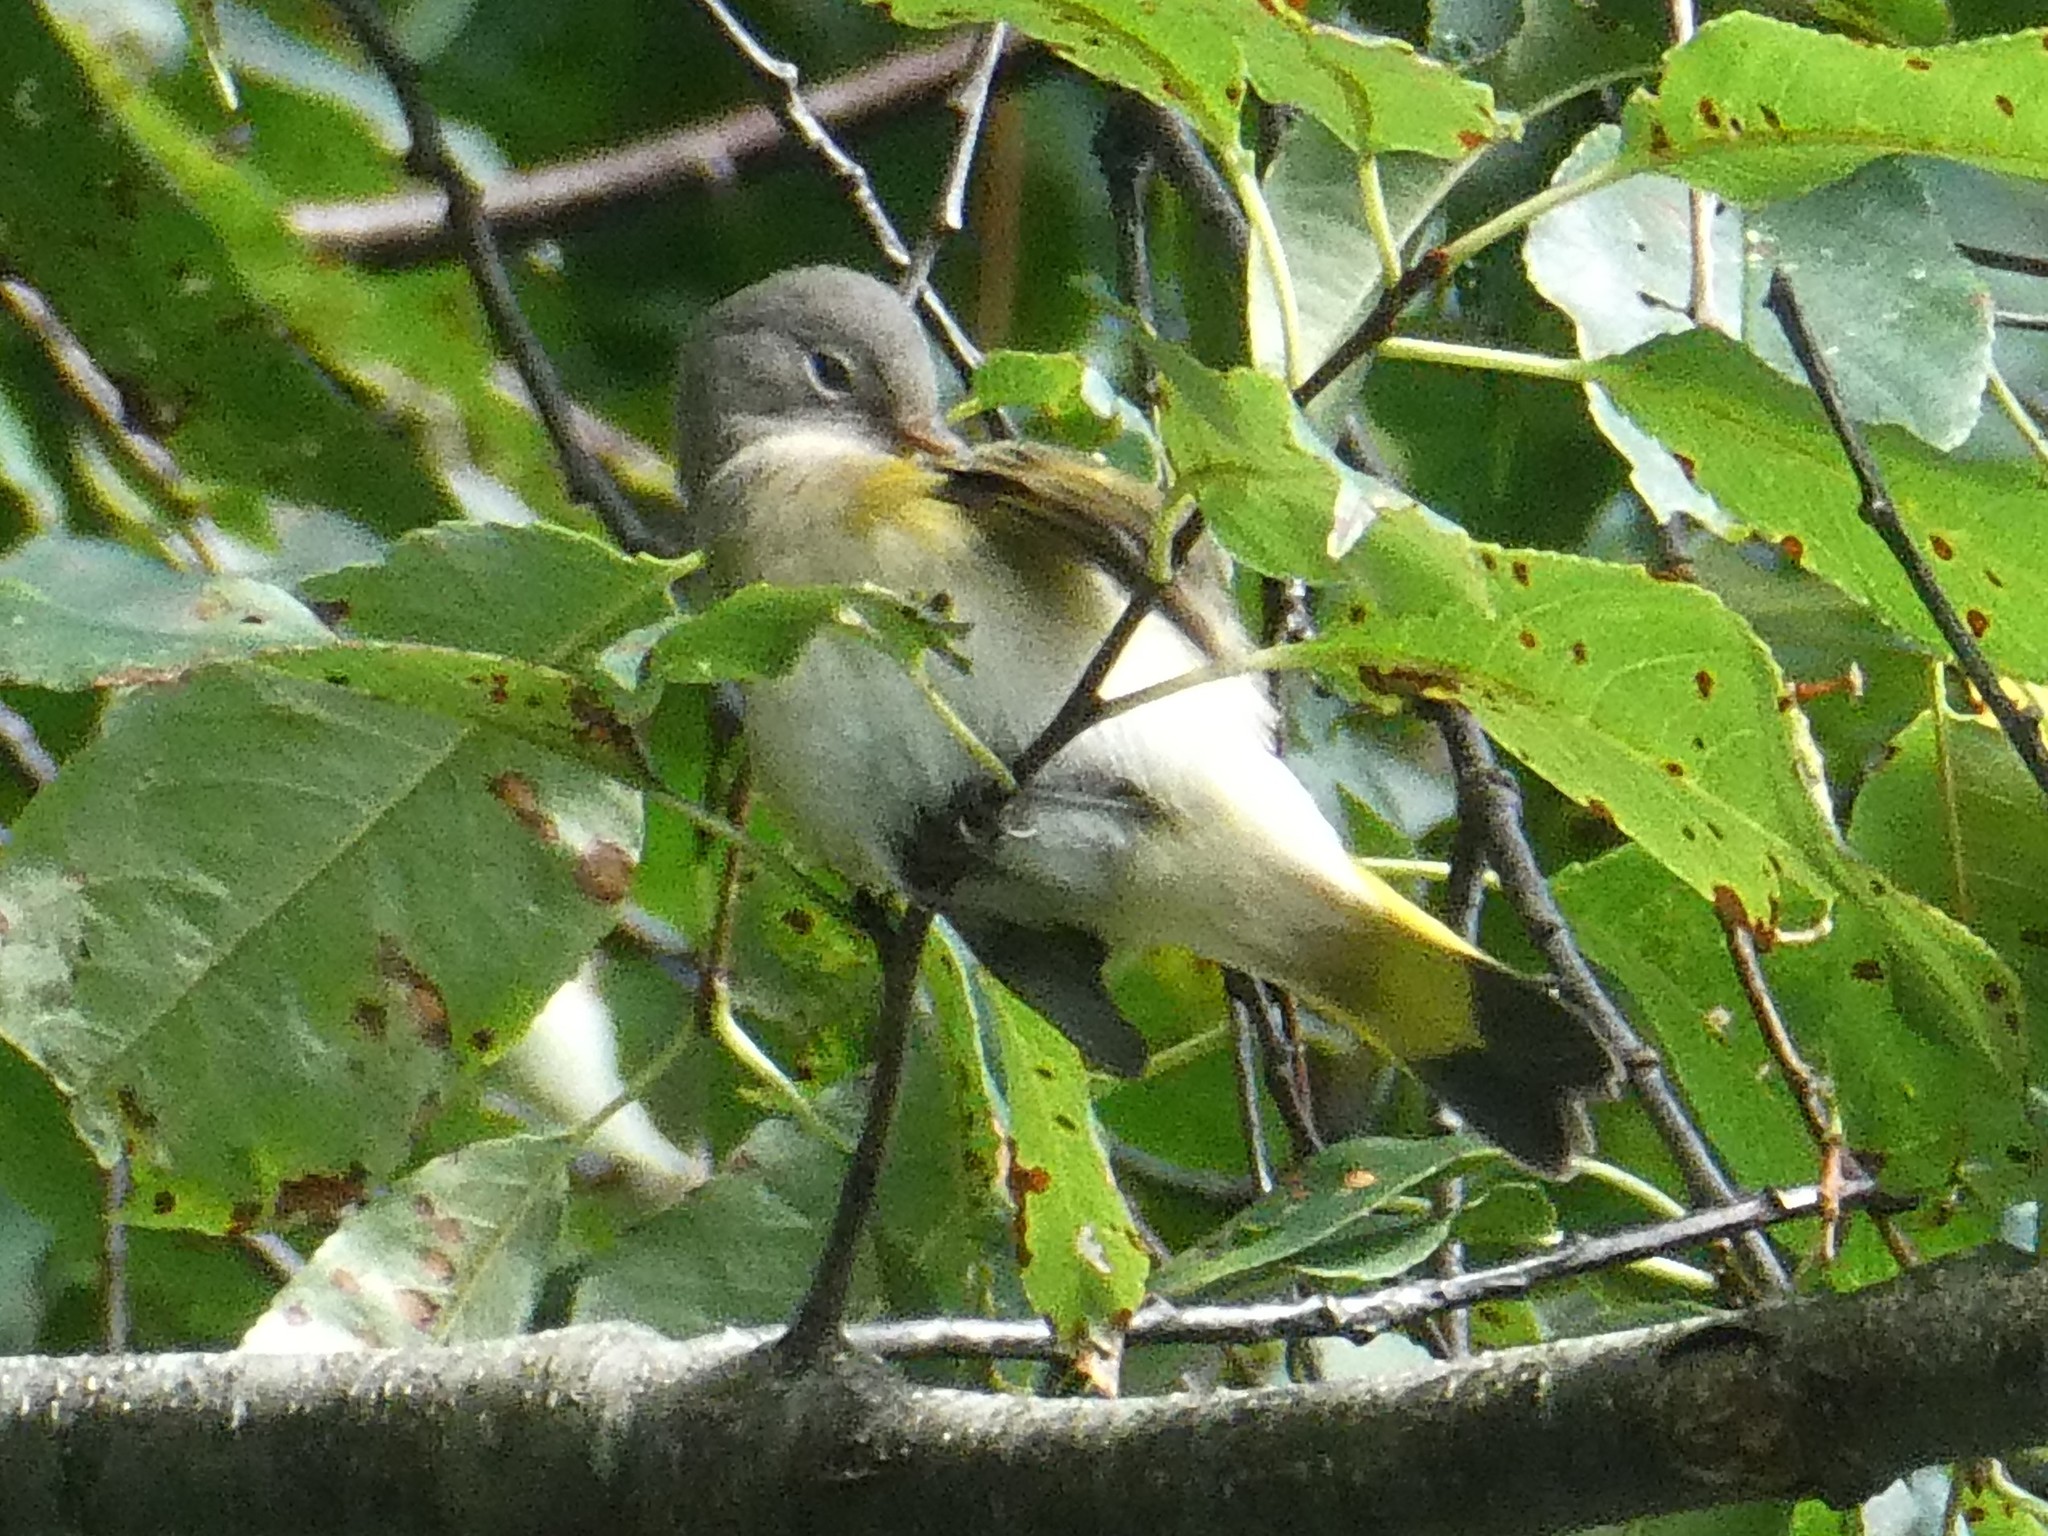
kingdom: Animalia
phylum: Chordata
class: Aves
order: Passeriformes
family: Parulidae
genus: Setophaga
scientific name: Setophaga ruticilla
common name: American redstart
